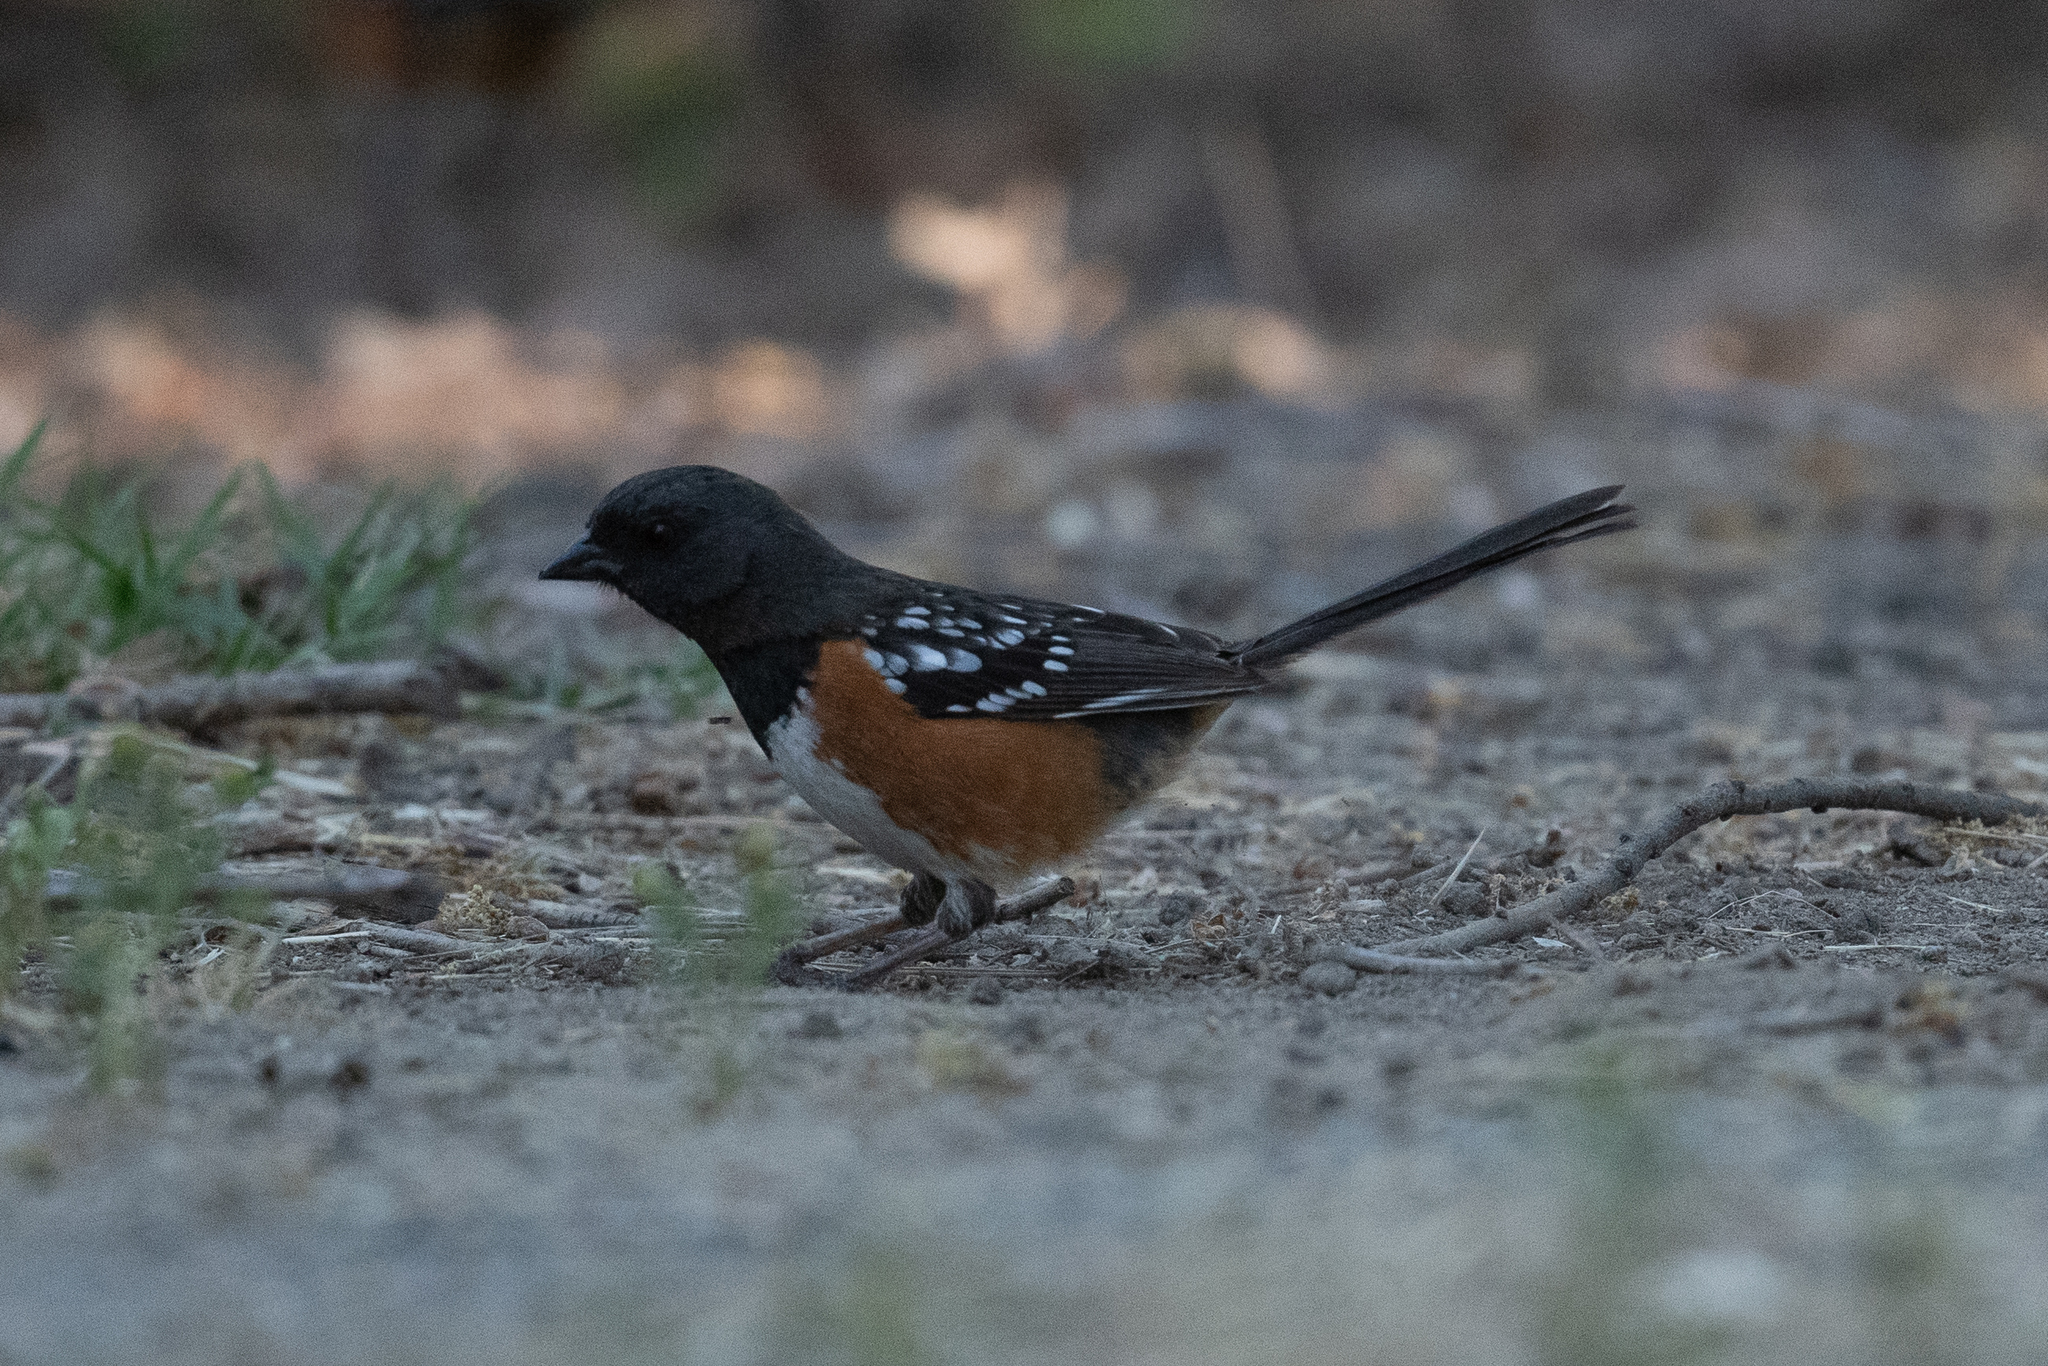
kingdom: Animalia
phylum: Chordata
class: Aves
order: Passeriformes
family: Passerellidae
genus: Pipilo
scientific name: Pipilo maculatus
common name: Spotted towhee
